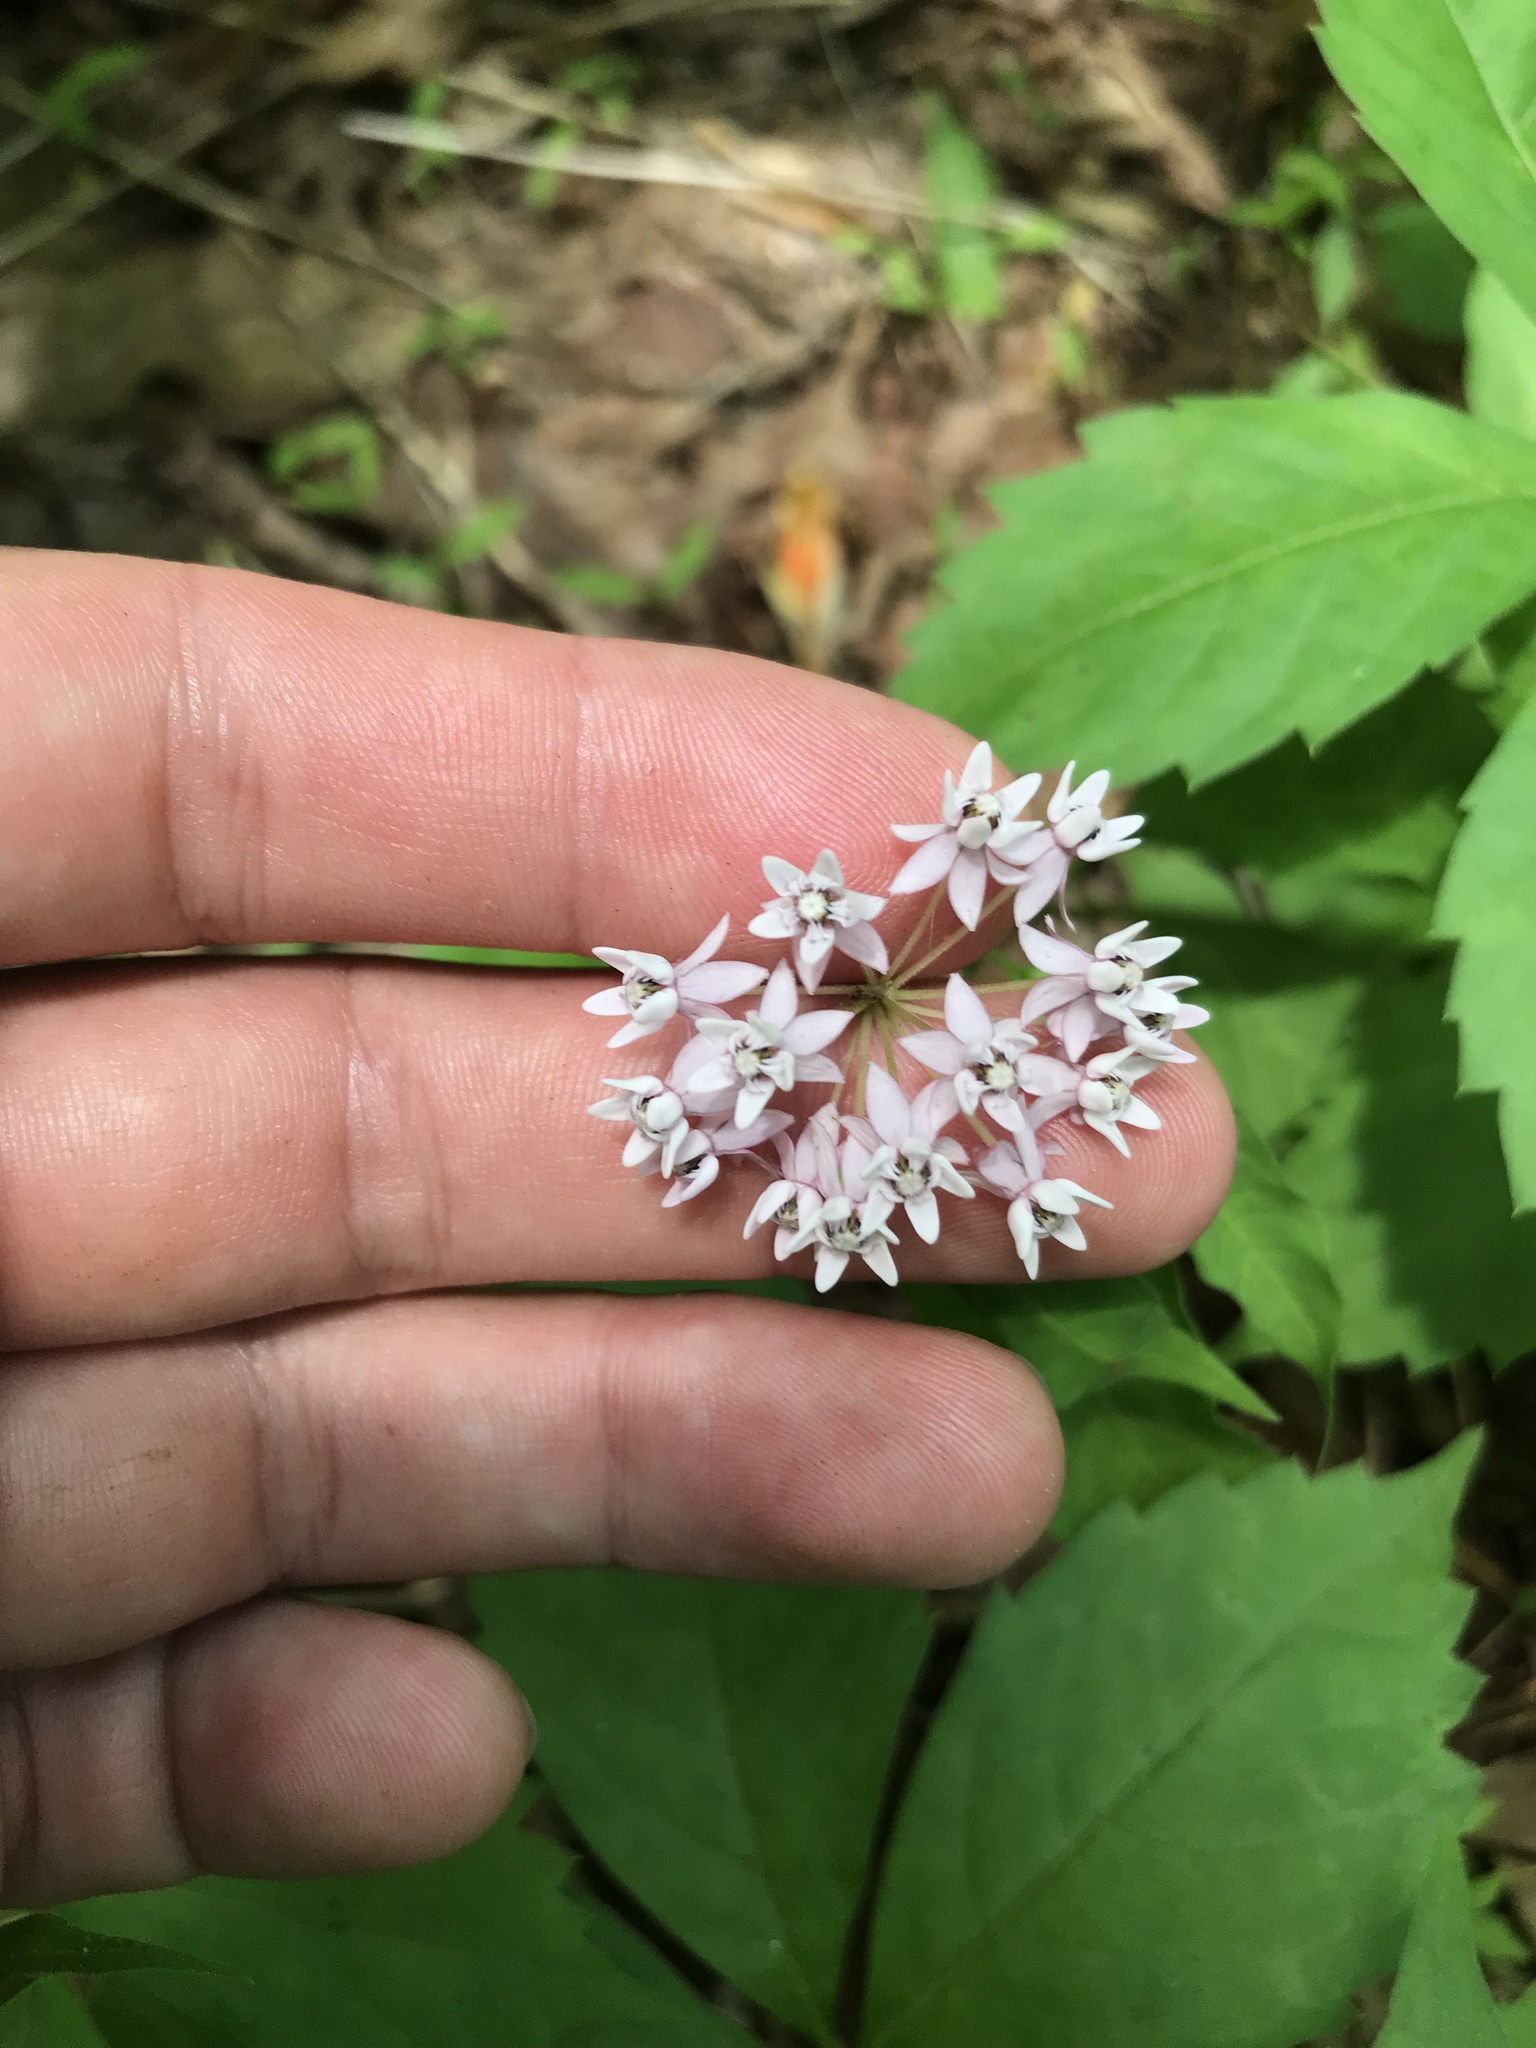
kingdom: Plantae
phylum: Tracheophyta
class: Magnoliopsida
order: Gentianales
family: Apocynaceae
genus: Asclepias
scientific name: Asclepias quadrifolia
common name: Whorled milkweed
